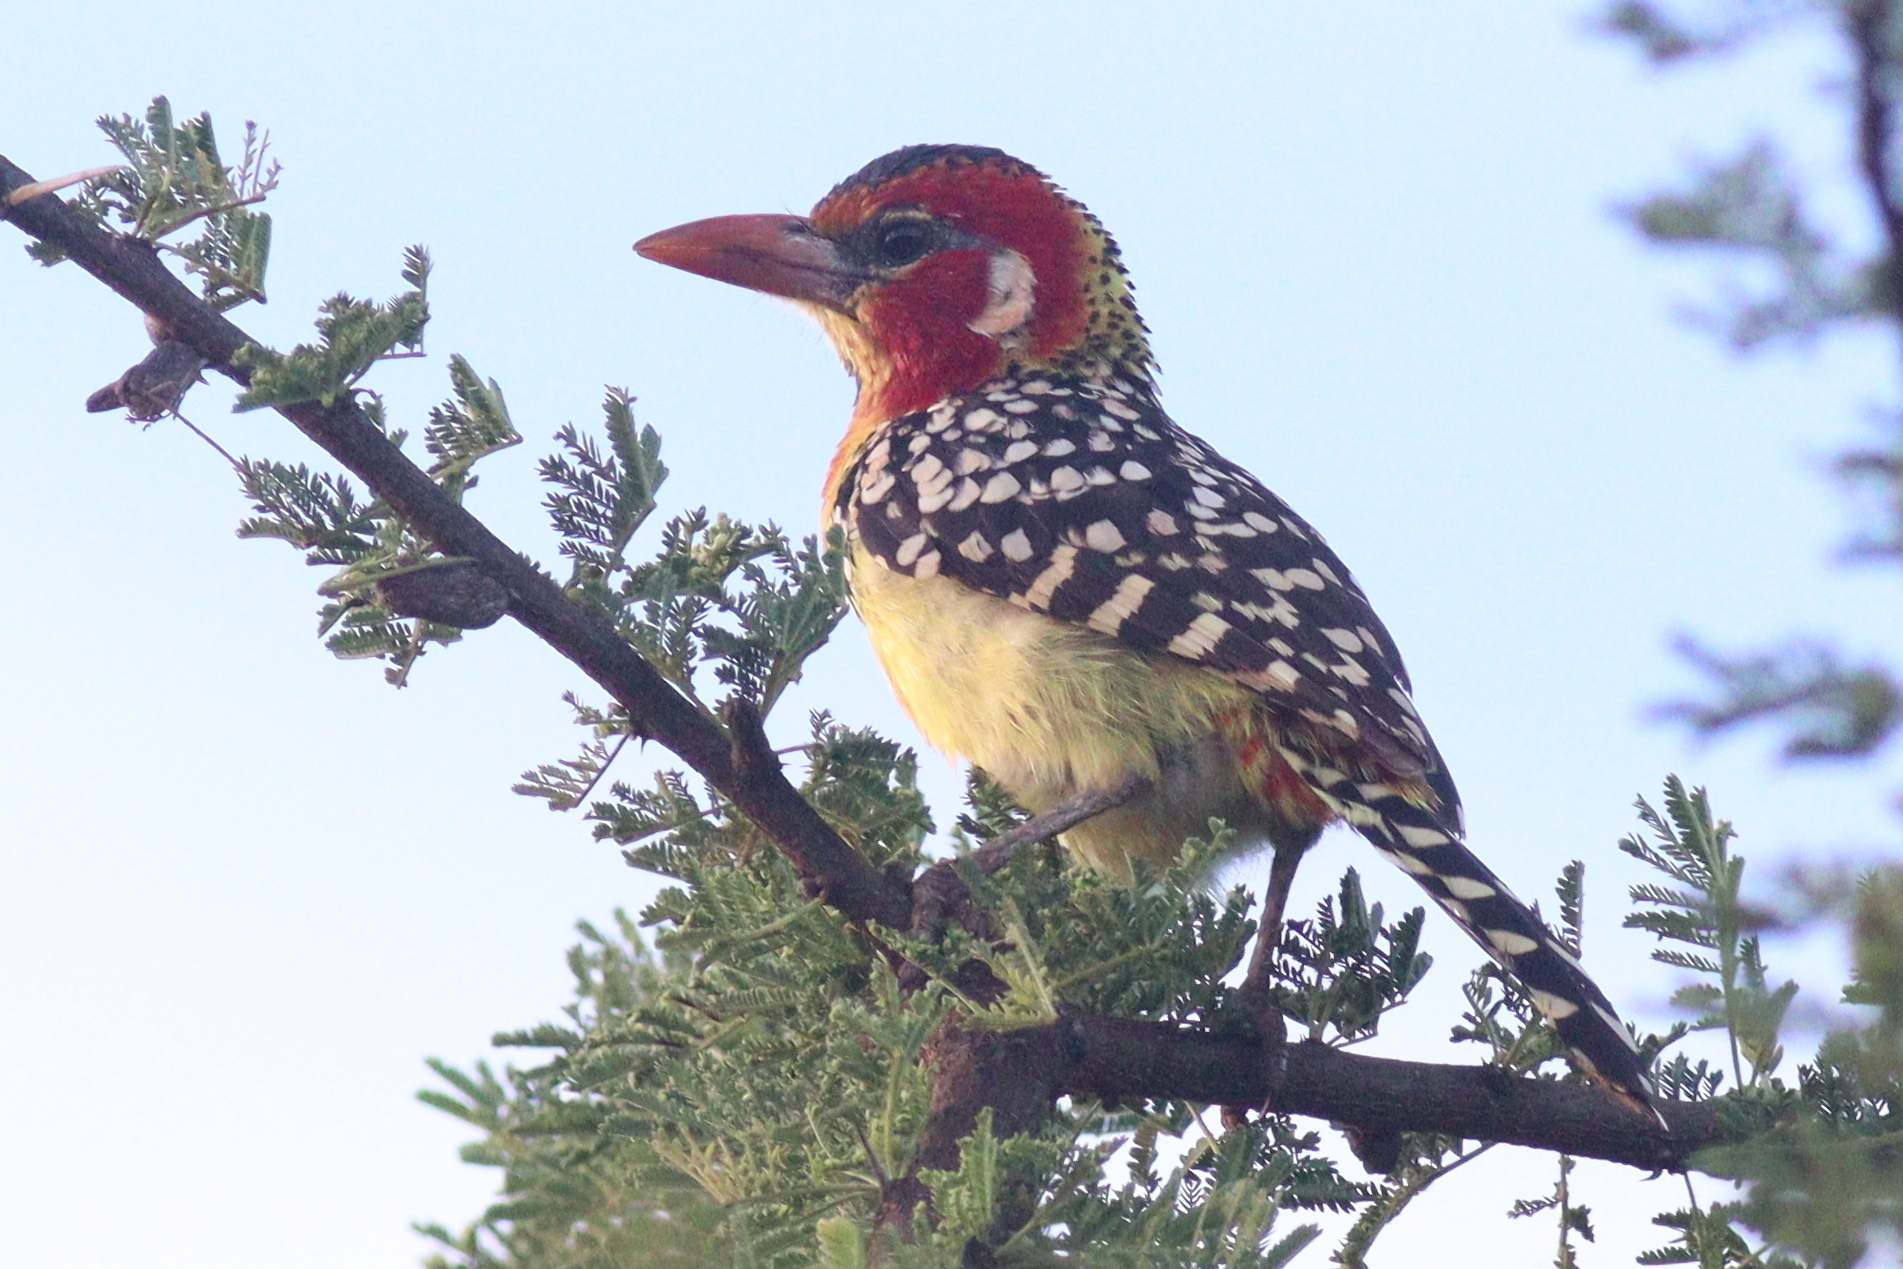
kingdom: Animalia
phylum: Chordata
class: Aves
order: Piciformes
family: Lybiidae
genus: Trachyphonus
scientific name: Trachyphonus erythrocephalus
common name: Red-and-yellow barbet
